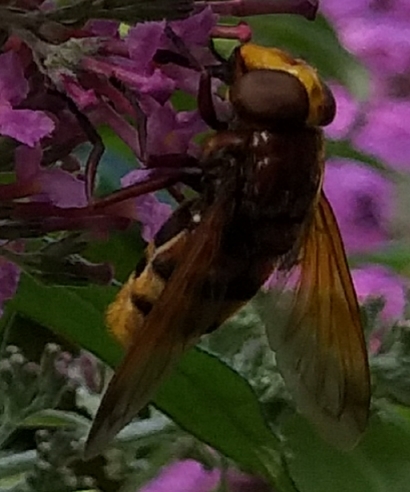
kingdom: Animalia
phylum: Arthropoda
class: Insecta
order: Diptera
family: Syrphidae
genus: Volucella
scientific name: Volucella zonaria
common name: Hornet hoverfly
